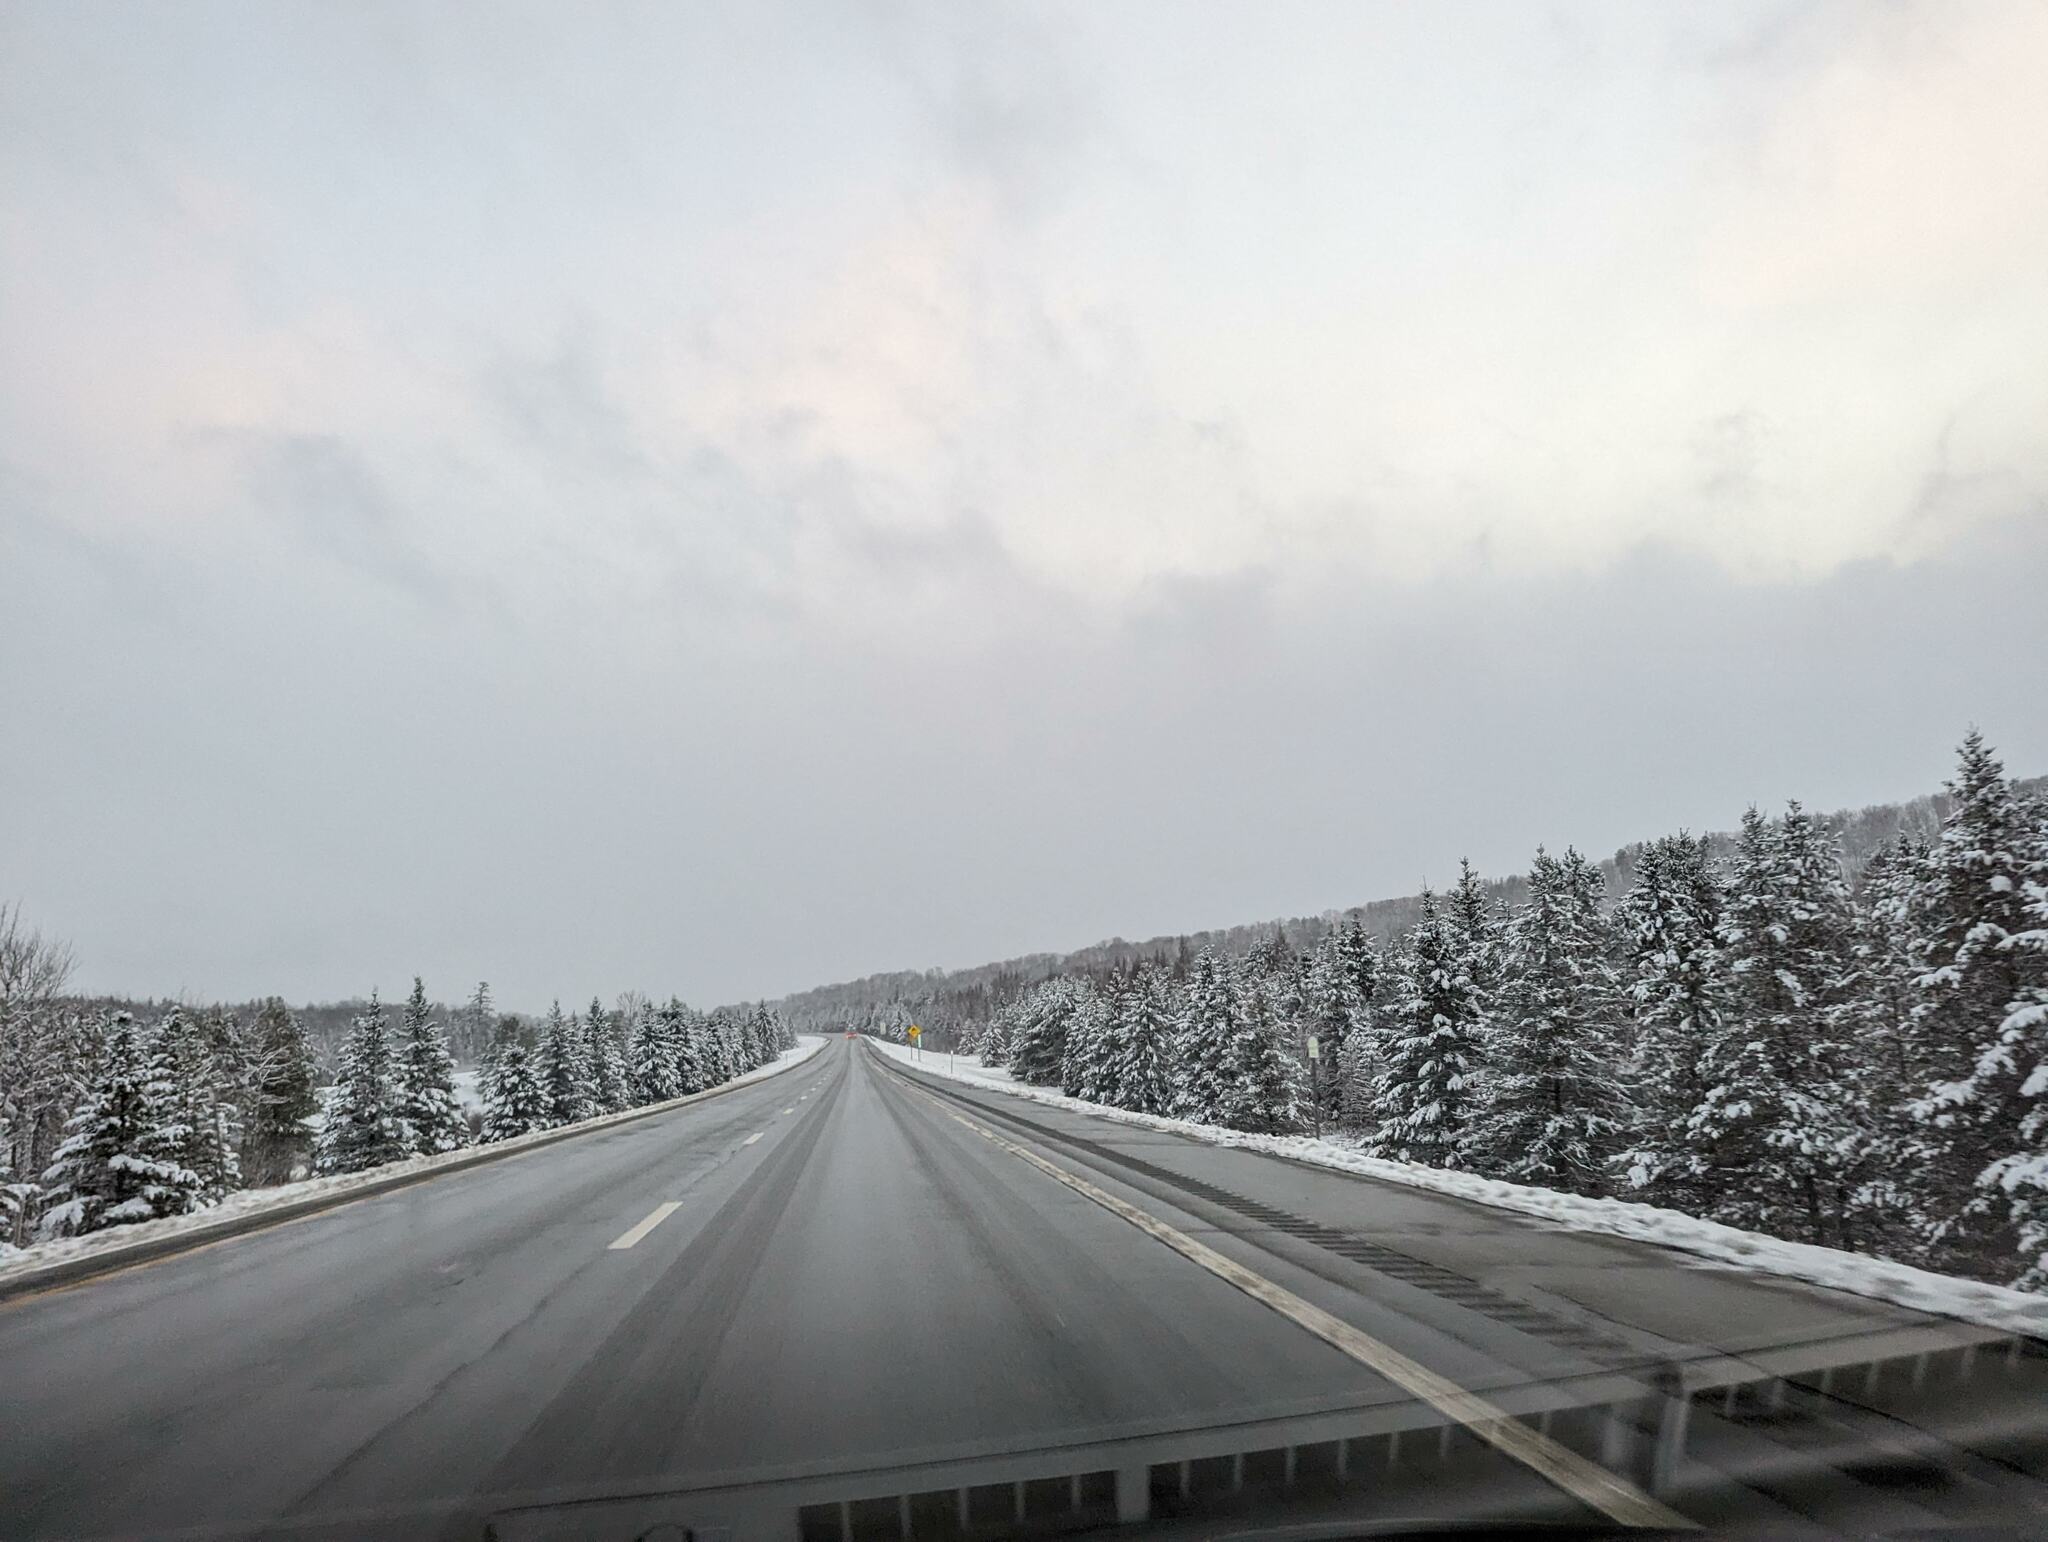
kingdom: Plantae
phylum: Tracheophyta
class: Pinopsida
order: Pinales
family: Pinaceae
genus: Abies
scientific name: Abies balsamea
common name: Balsam fir
